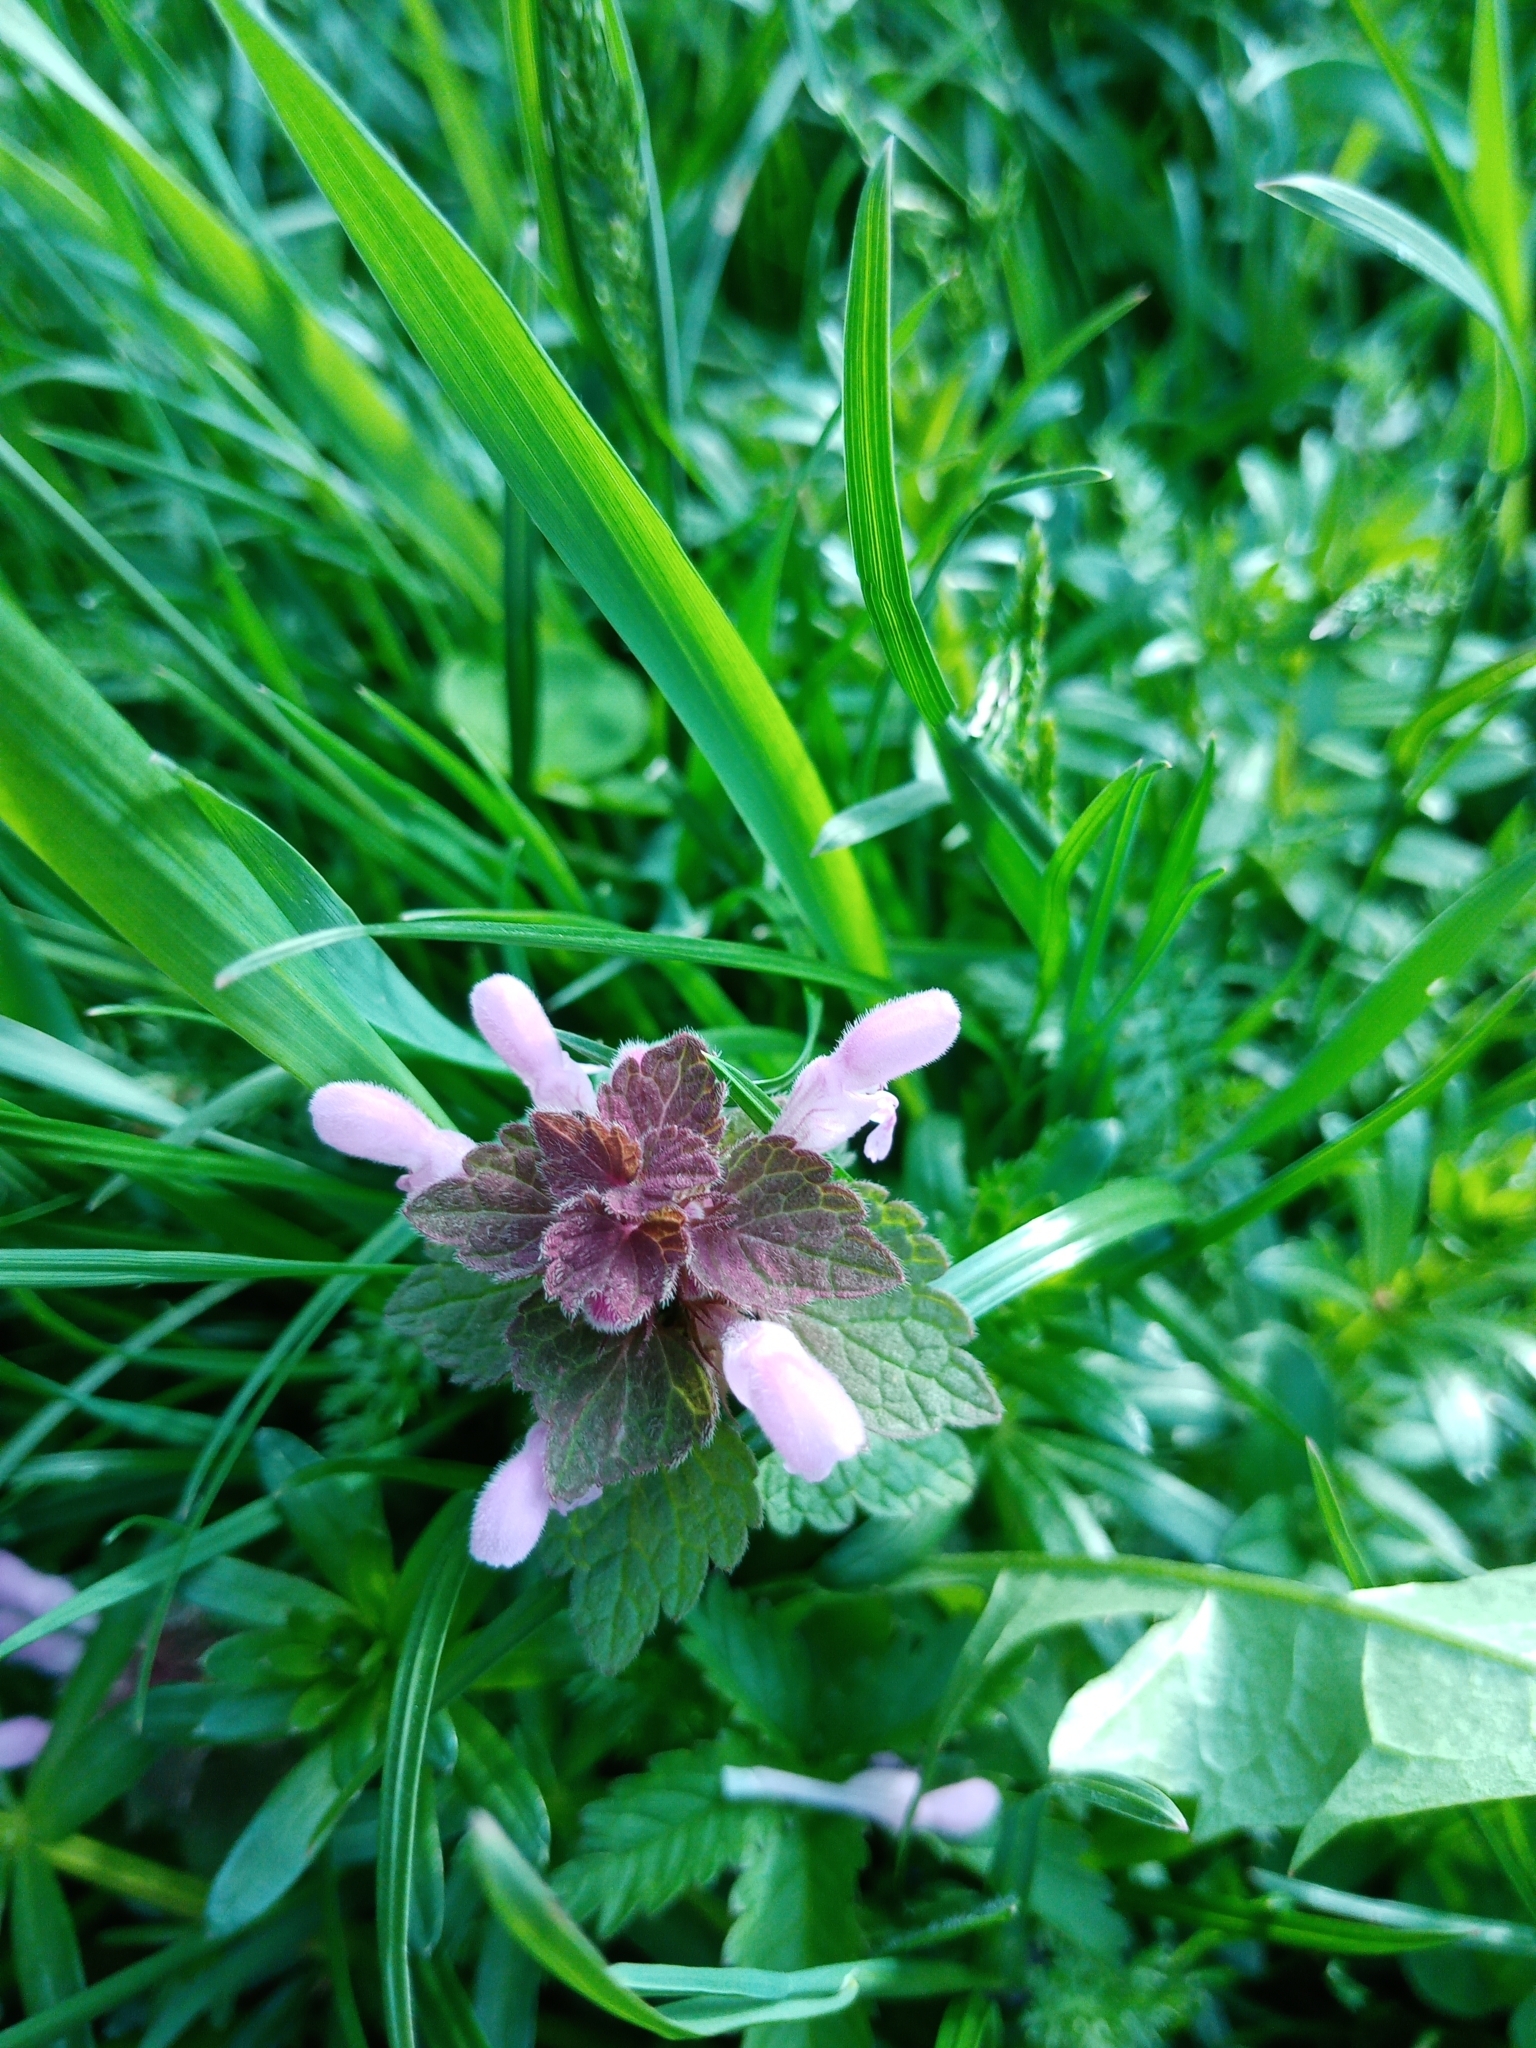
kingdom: Plantae
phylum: Tracheophyta
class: Magnoliopsida
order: Lamiales
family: Lamiaceae
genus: Lamium
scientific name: Lamium purpureum
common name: Red dead-nettle
